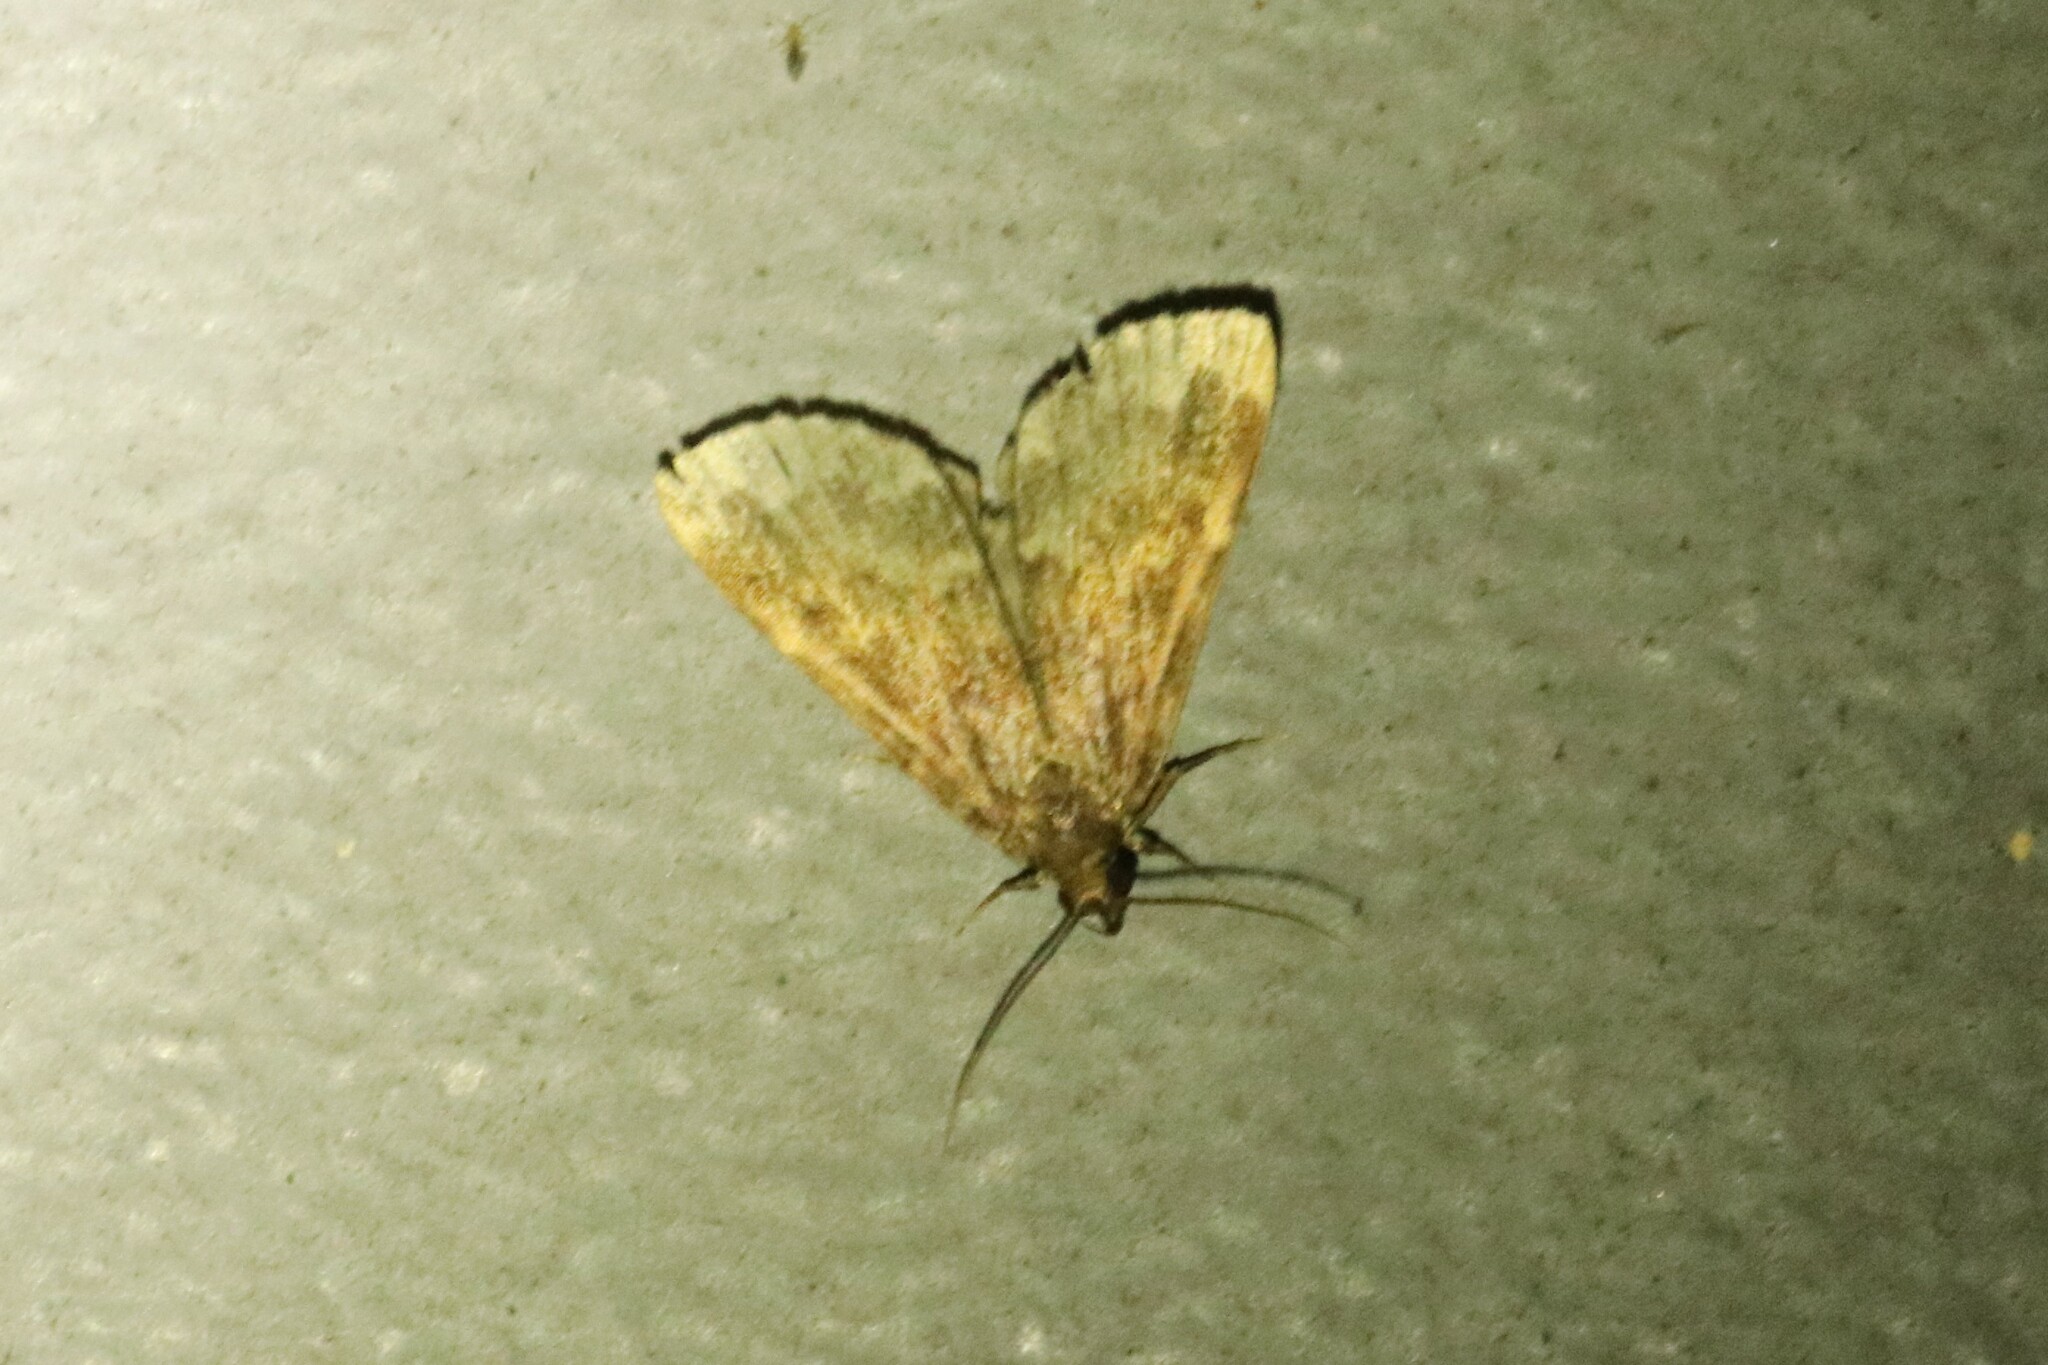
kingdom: Animalia
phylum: Arthropoda
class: Insecta
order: Lepidoptera
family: Erebidae
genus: Idia
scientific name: Idia lubricalis
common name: Twin-striped tabby
